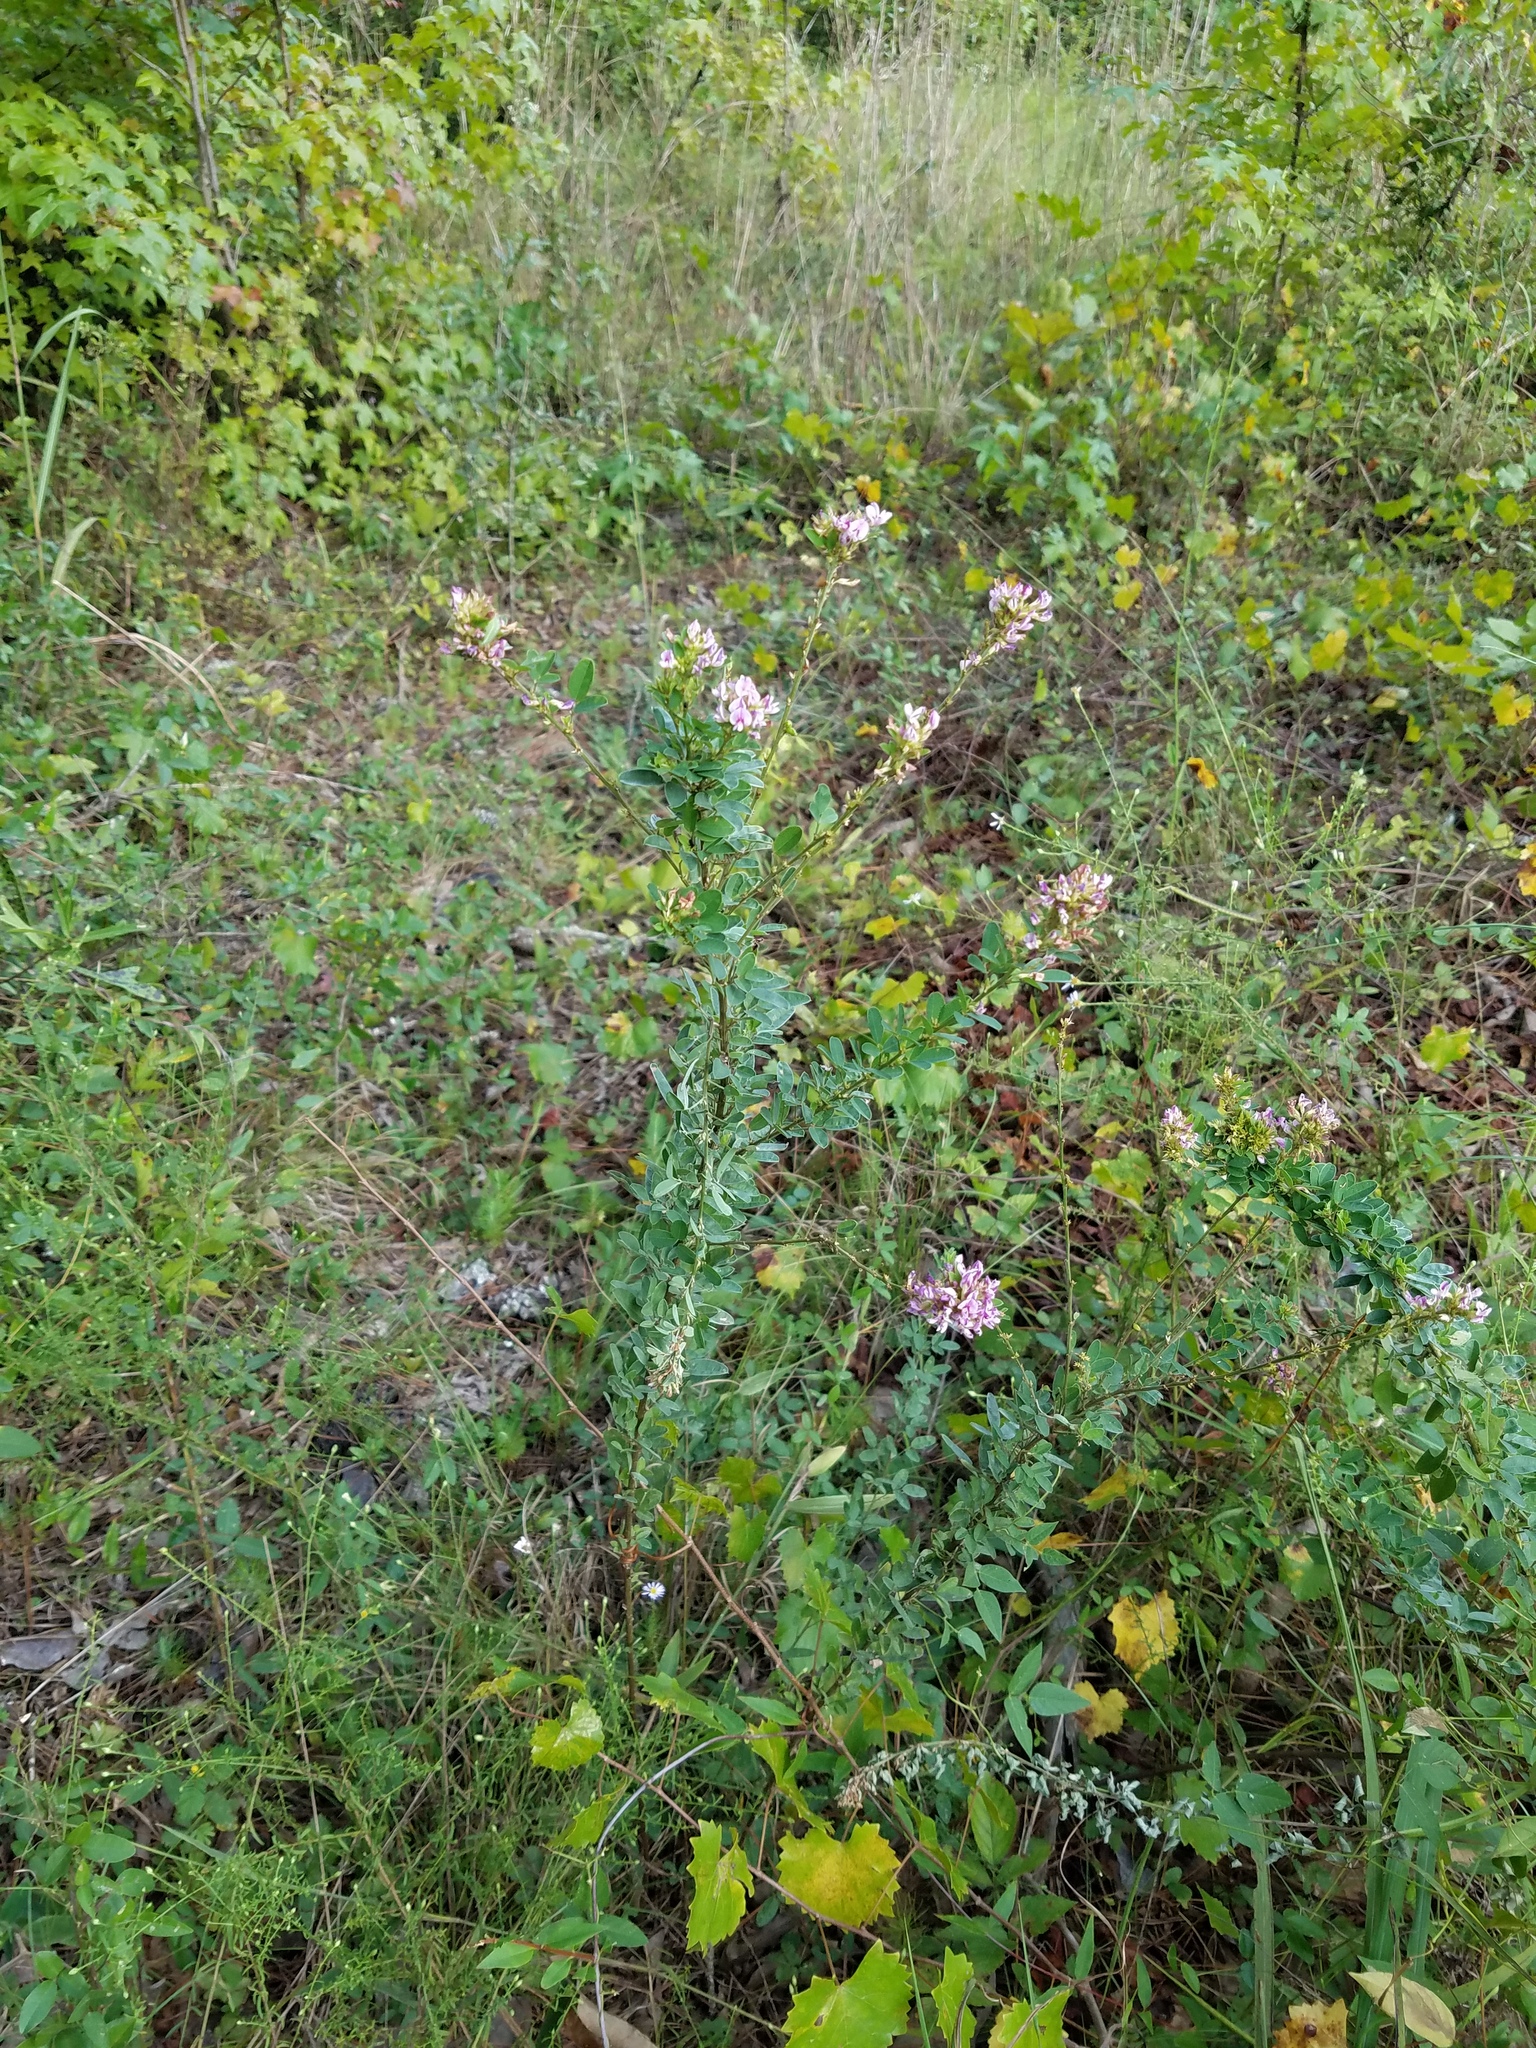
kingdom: Plantae
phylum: Tracheophyta
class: Magnoliopsida
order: Fabales
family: Fabaceae
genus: Lespedeza
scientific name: Lespedeza violacea
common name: Wand bush-clover
